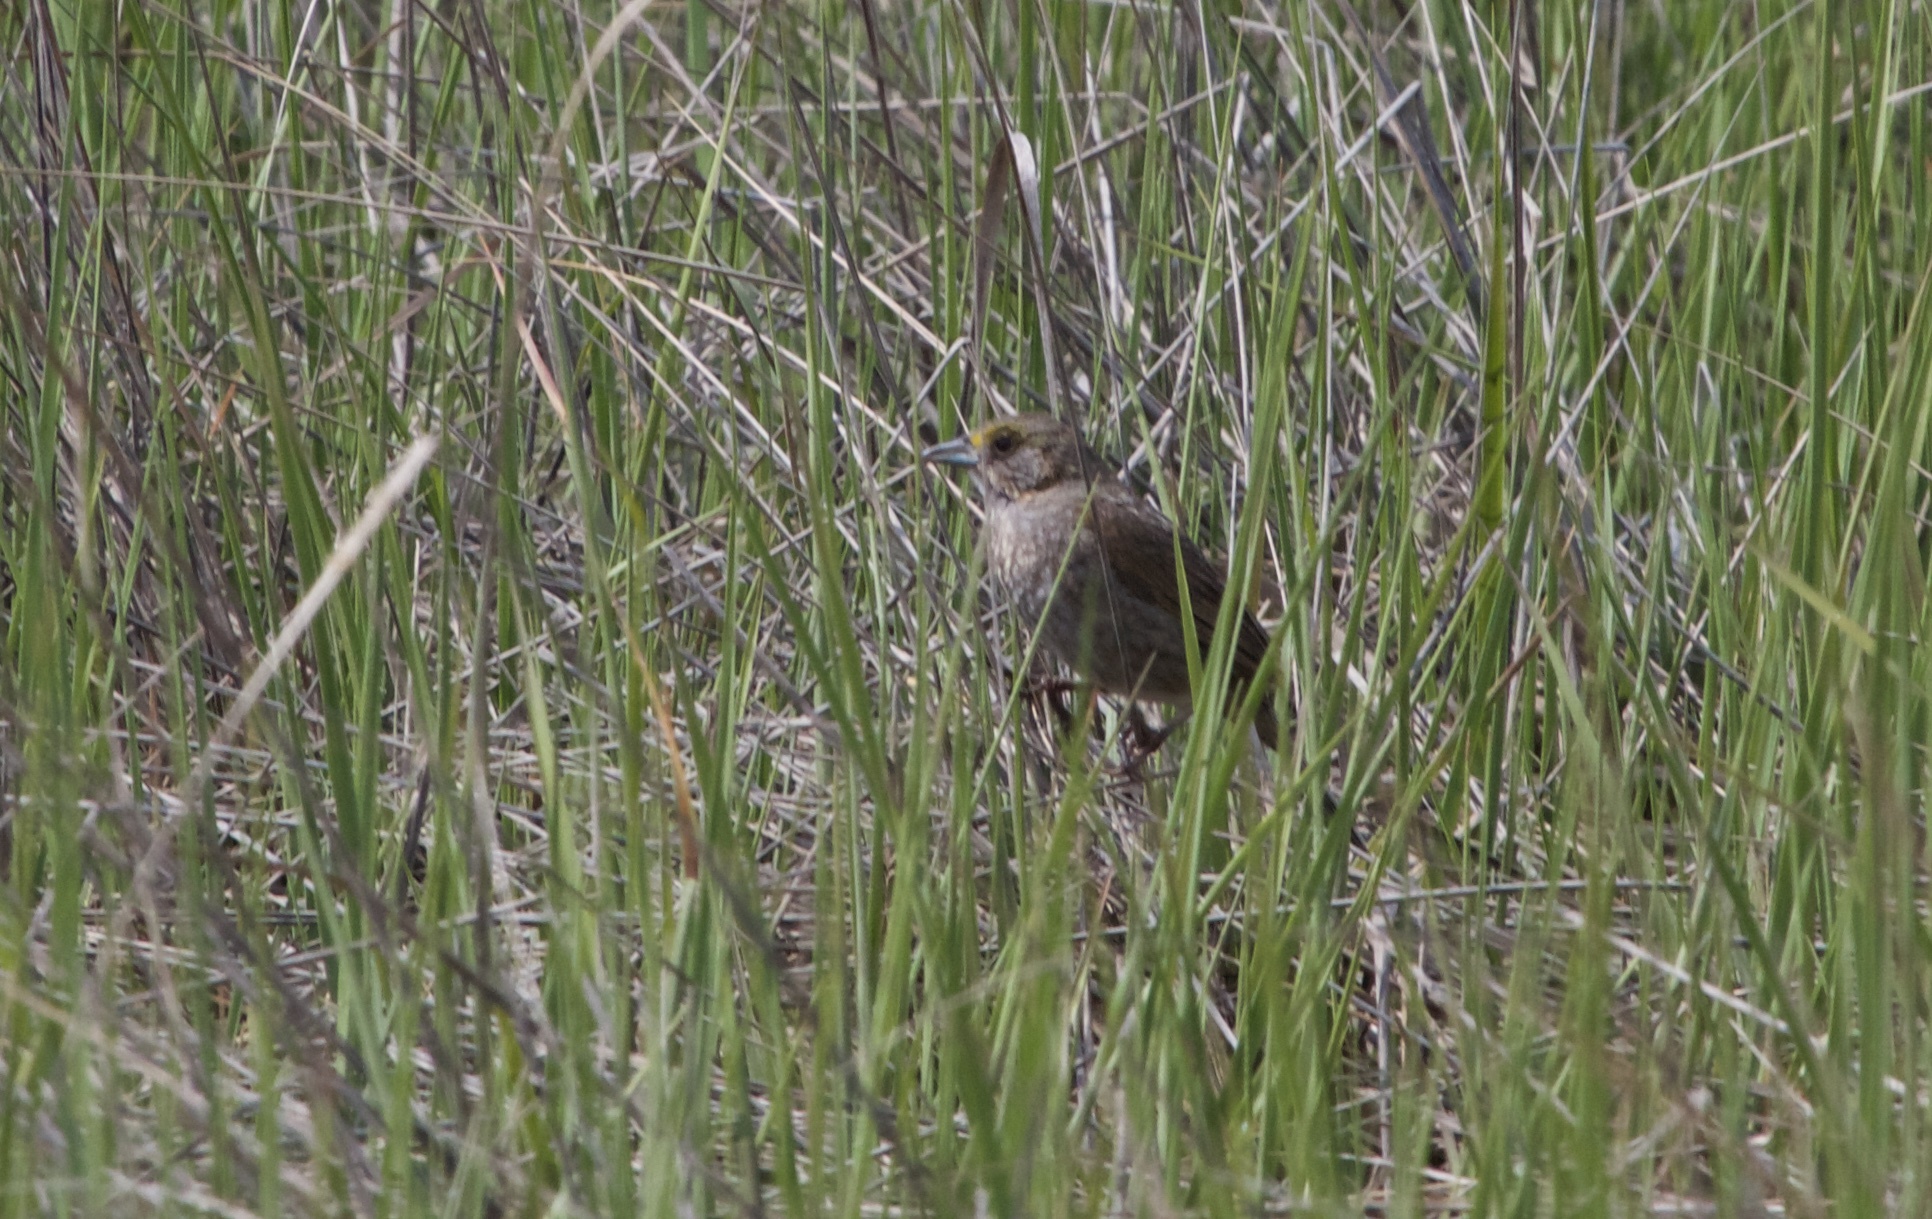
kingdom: Animalia
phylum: Chordata
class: Aves
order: Passeriformes
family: Passerellidae
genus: Ammospiza
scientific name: Ammospiza maritima
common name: Seaside sparrow
